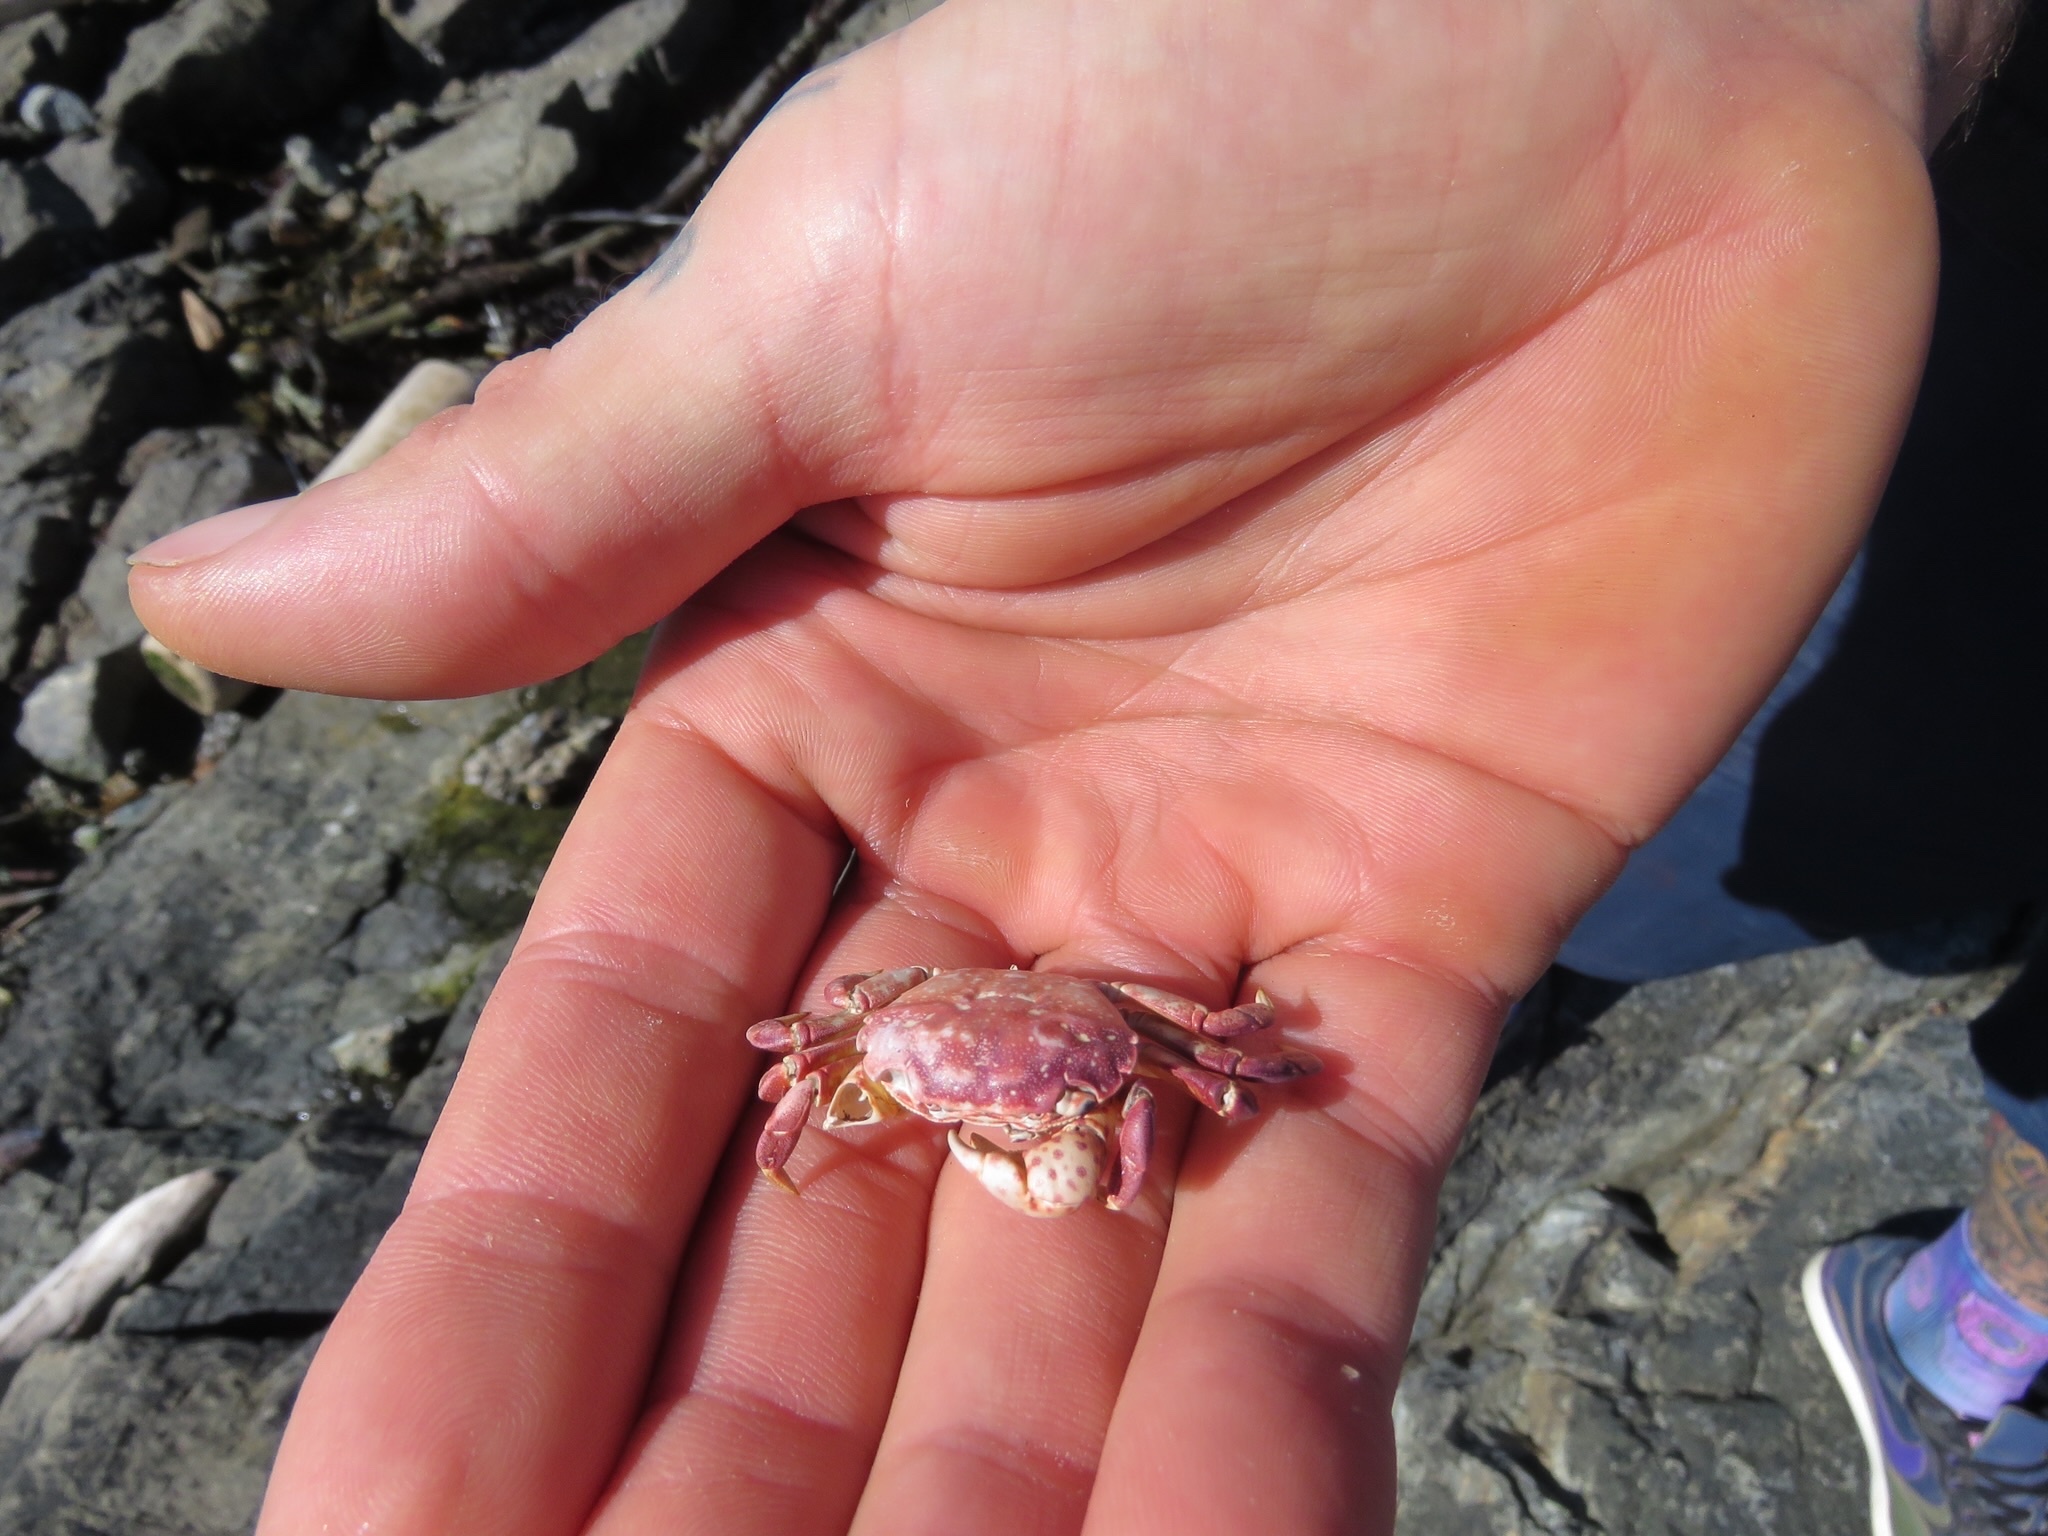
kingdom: Animalia
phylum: Arthropoda
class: Malacostraca
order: Decapoda
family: Varunidae
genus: Hemigrapsus
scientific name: Hemigrapsus nudus
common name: Purple shore crab
